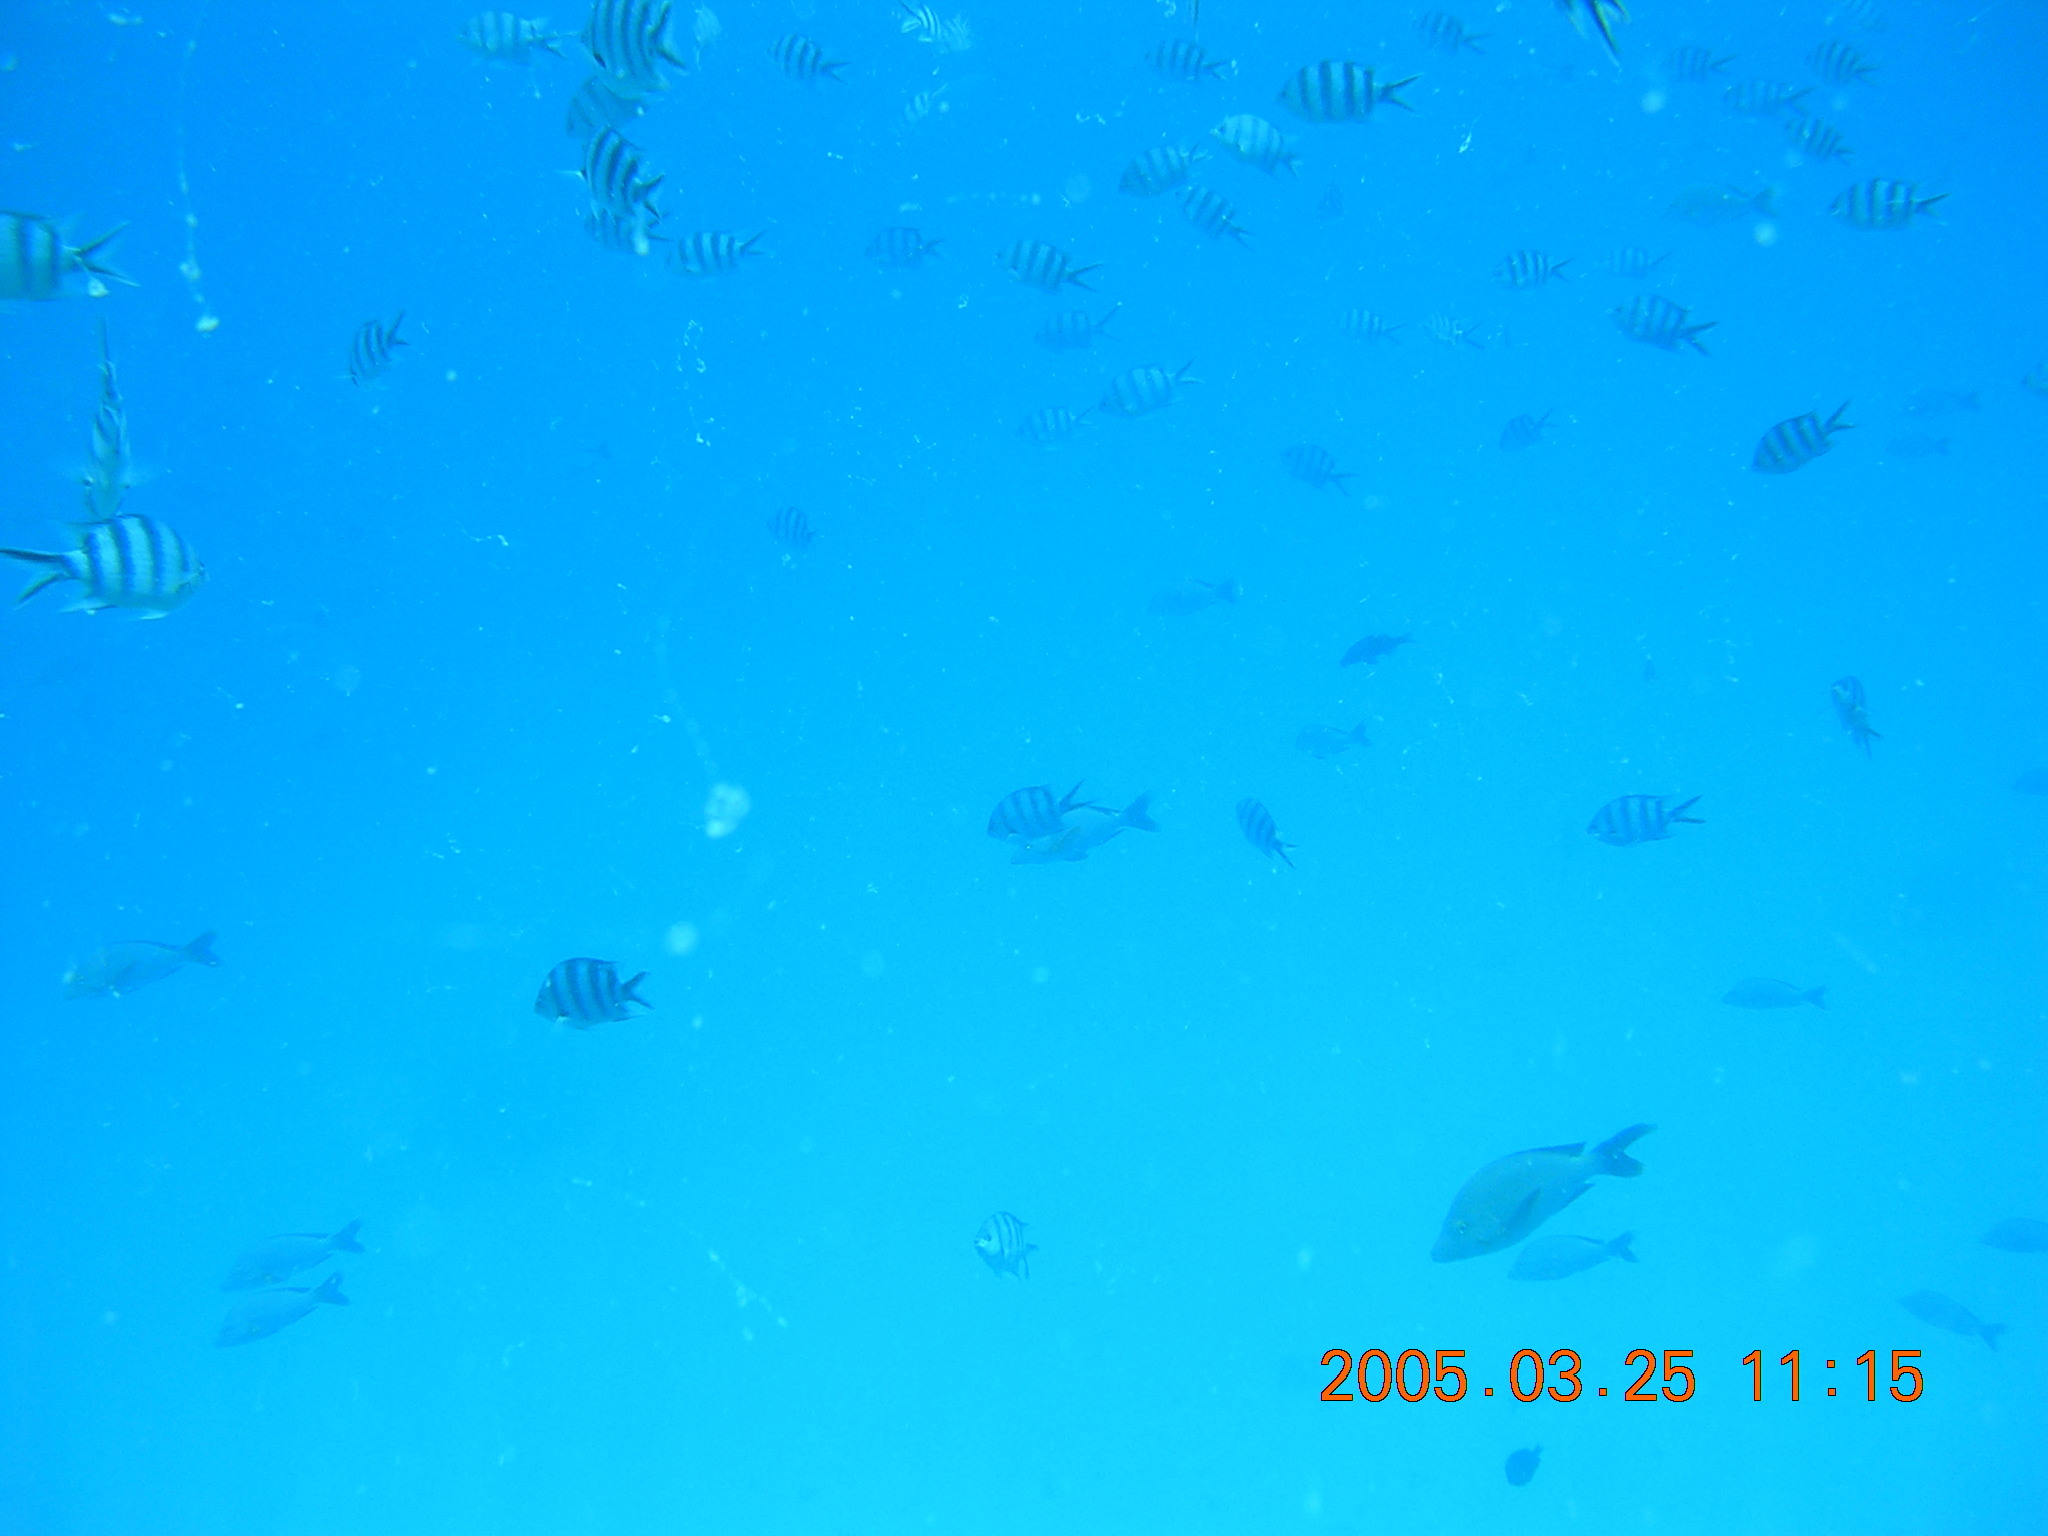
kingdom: Animalia
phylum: Chordata
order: Perciformes
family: Pomacentridae
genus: Abudefduf
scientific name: Abudefduf sexfasciatus
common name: Scissortail sergeant
